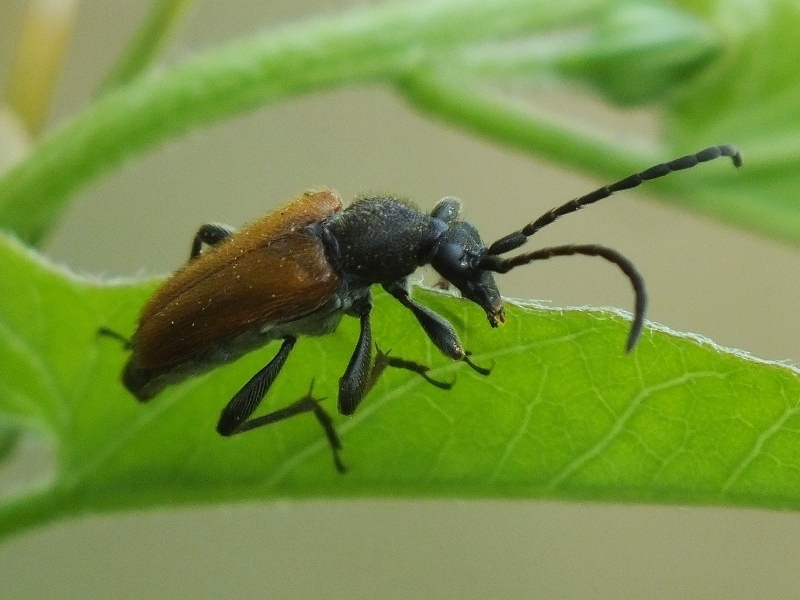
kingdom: Animalia
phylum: Arthropoda
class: Insecta
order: Coleoptera
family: Cerambycidae
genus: Pseudovadonia
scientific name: Pseudovadonia livida
